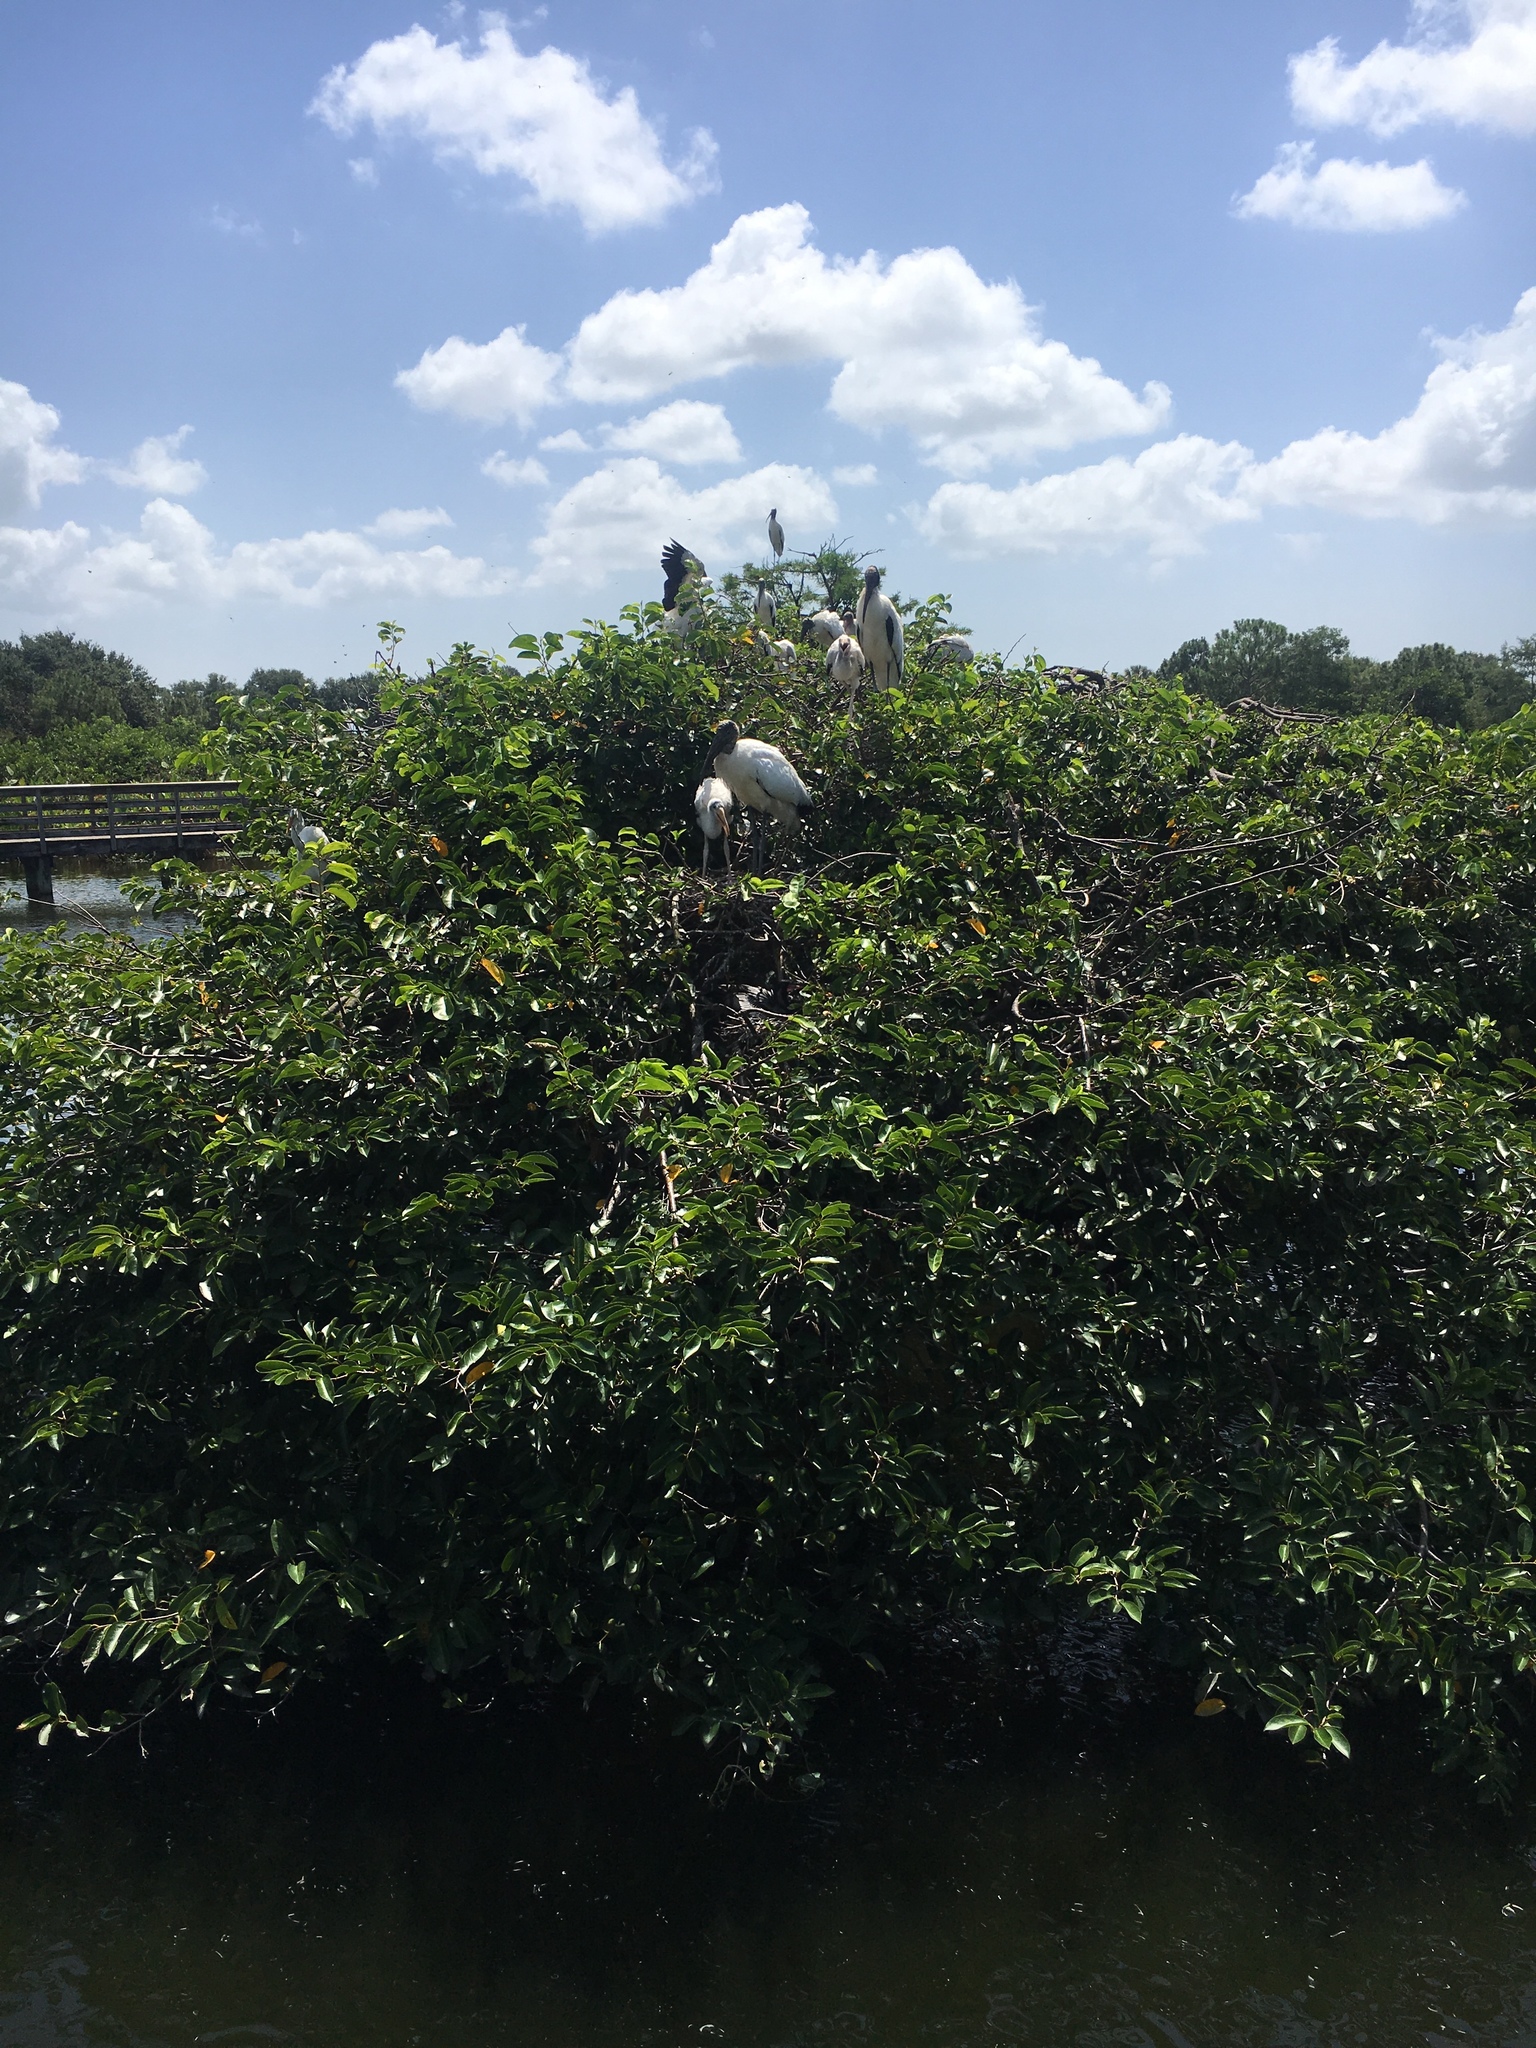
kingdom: Animalia
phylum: Chordata
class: Aves
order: Ciconiiformes
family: Ciconiidae
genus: Mycteria
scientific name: Mycteria americana
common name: Wood stork
